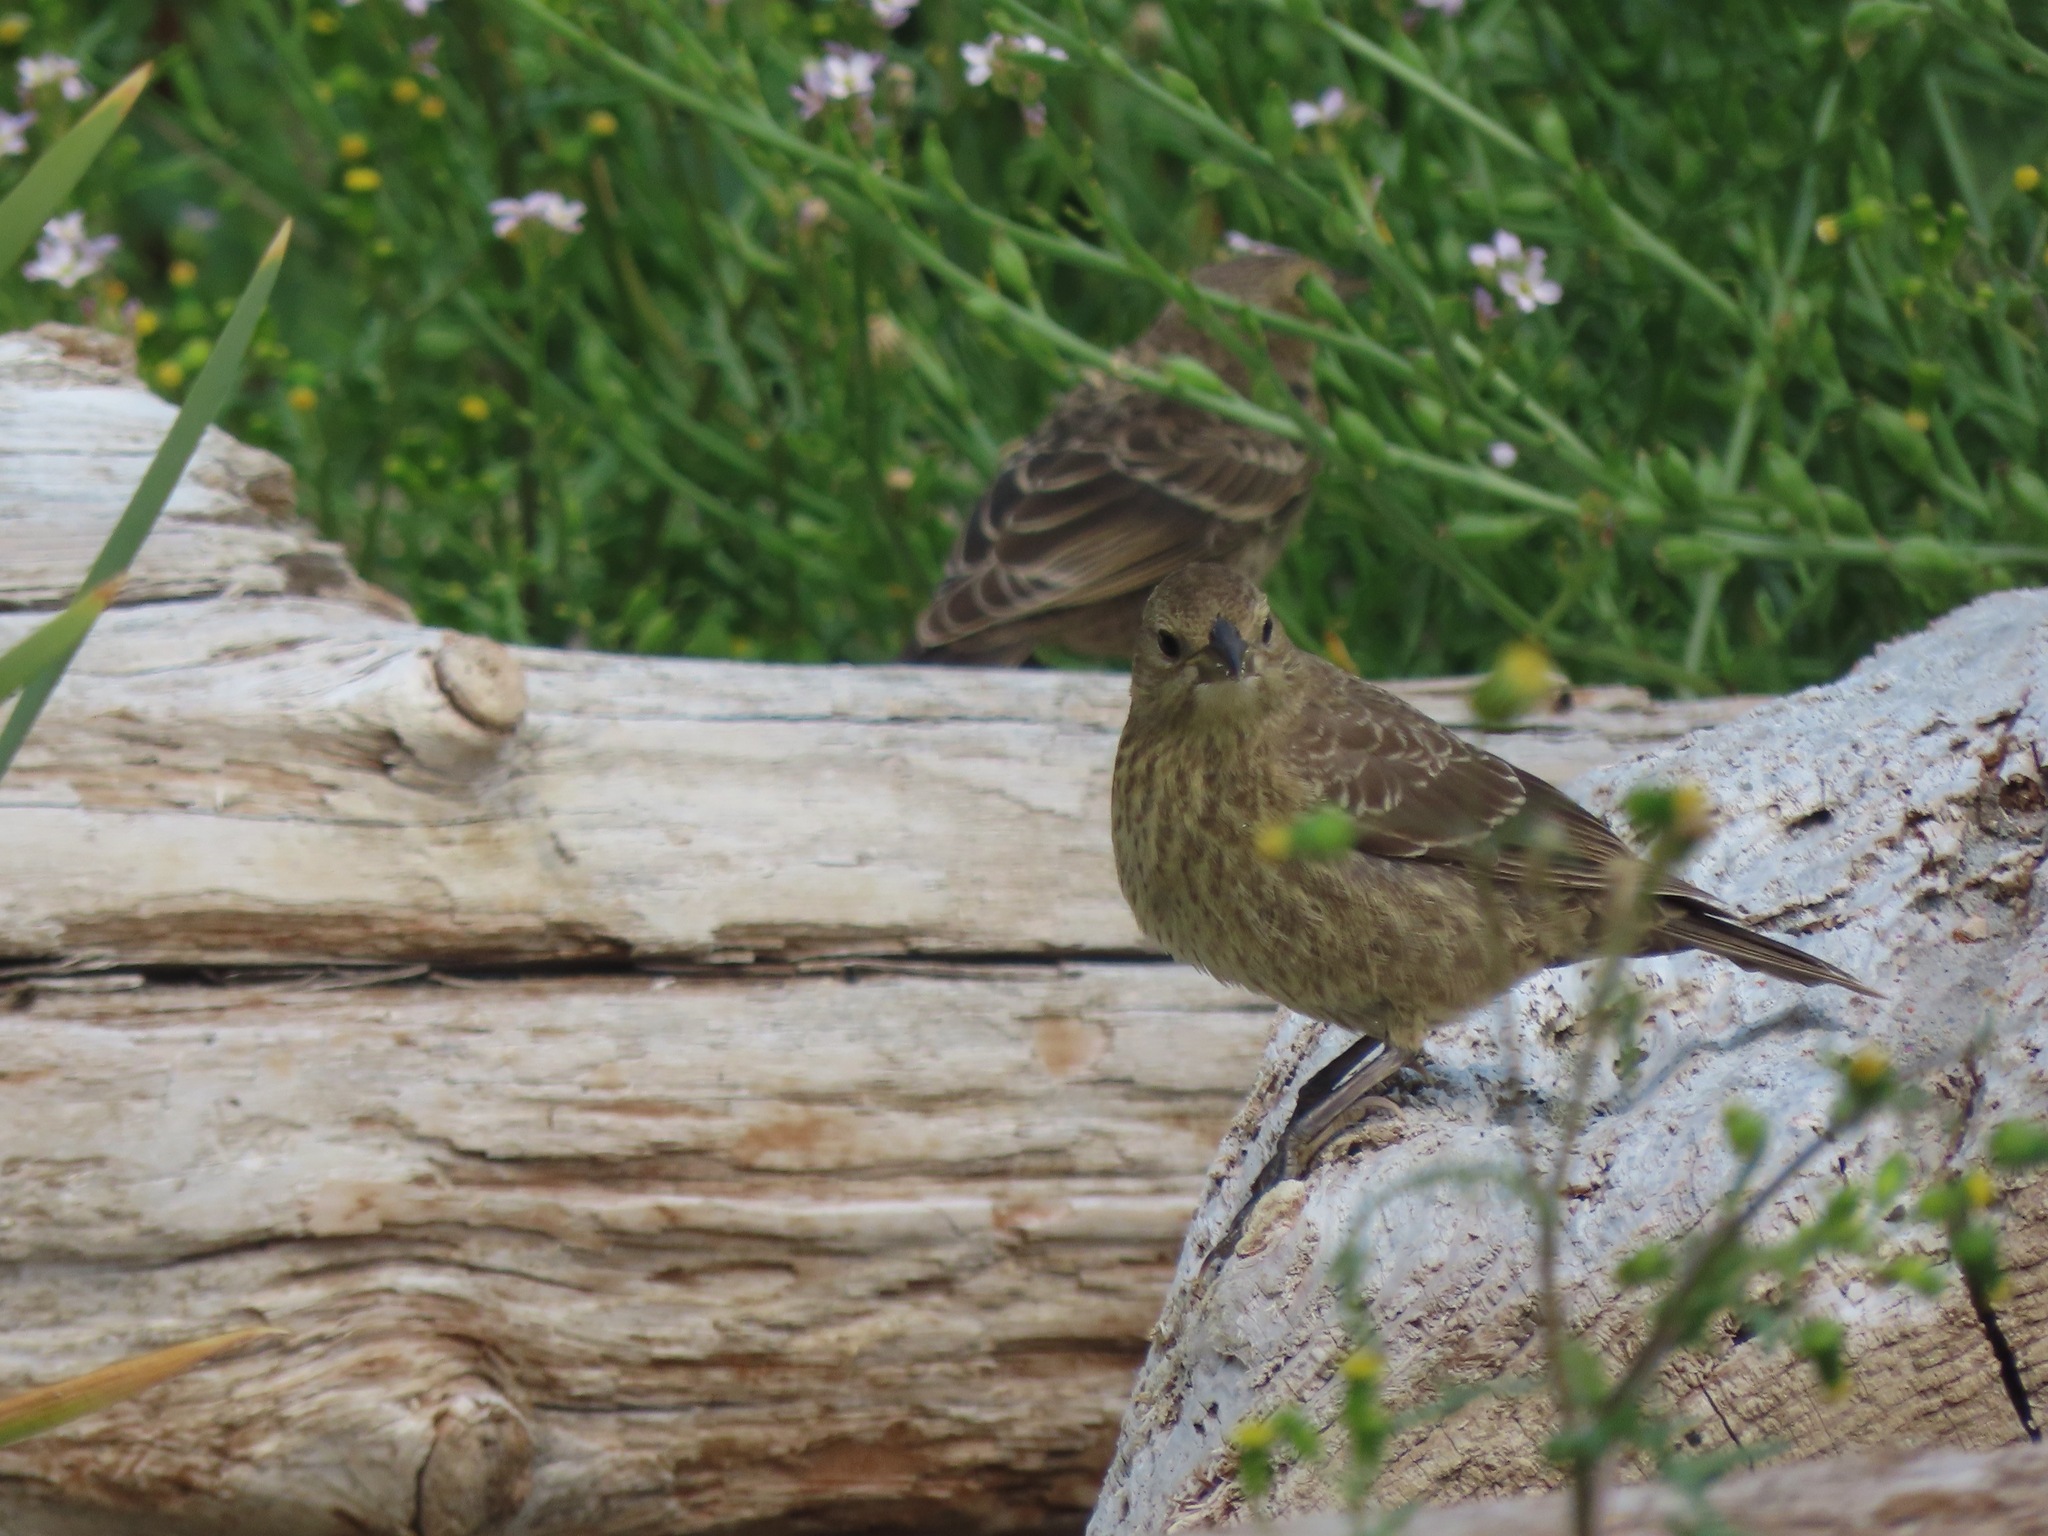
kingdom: Animalia
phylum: Chordata
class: Aves
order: Passeriformes
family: Icteridae
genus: Molothrus
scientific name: Molothrus ater
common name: Brown-headed cowbird
